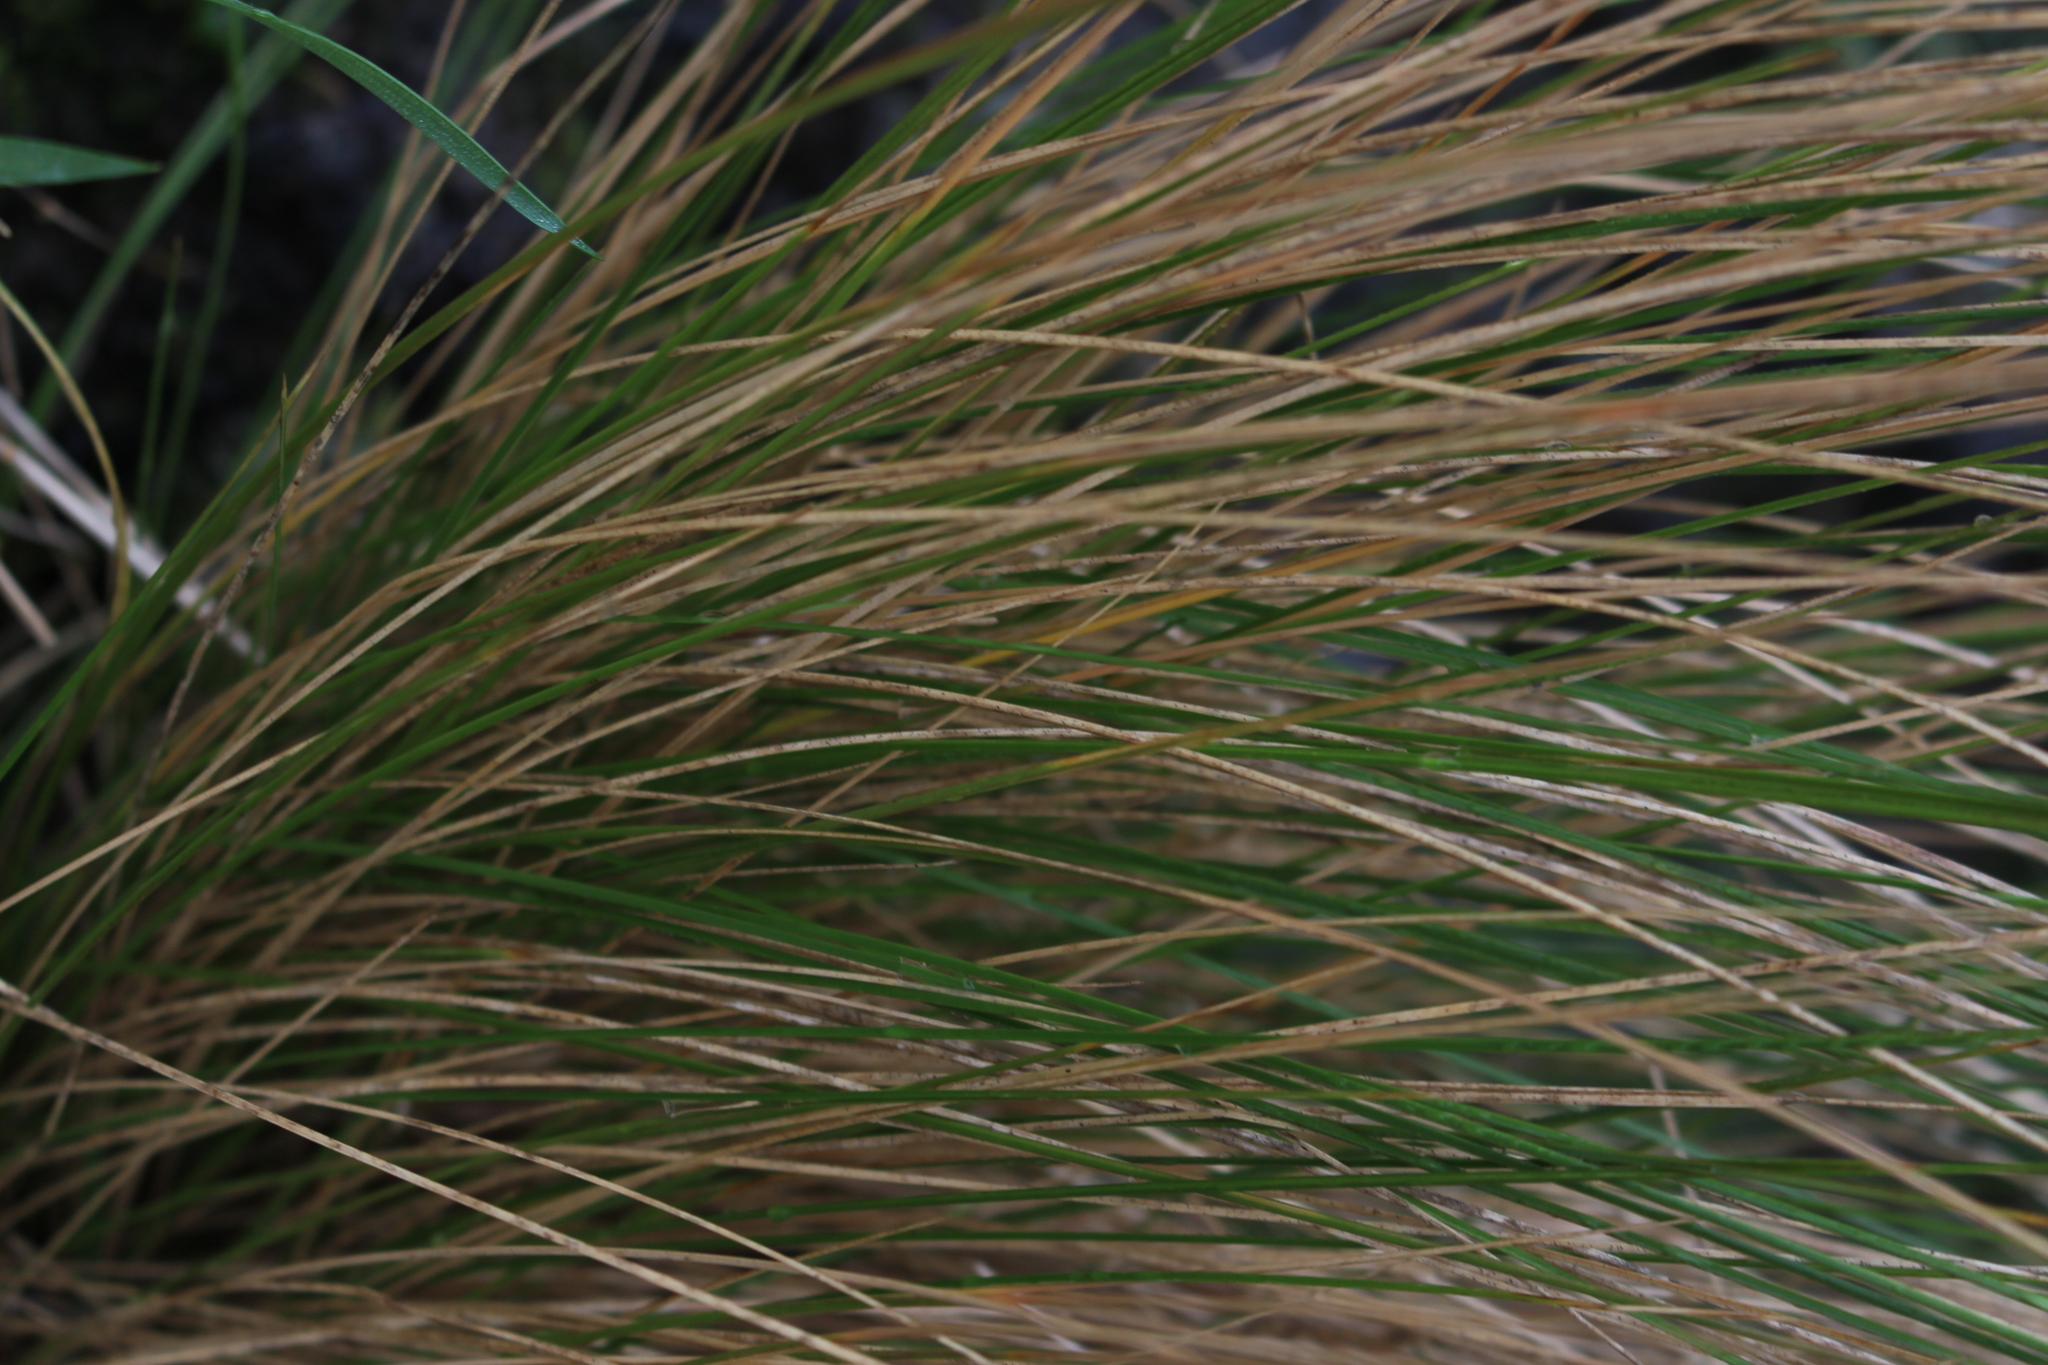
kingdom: Plantae
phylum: Tracheophyta
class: Liliopsida
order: Poales
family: Poaceae
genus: Poa
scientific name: Poa cita
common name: Silver tussock
